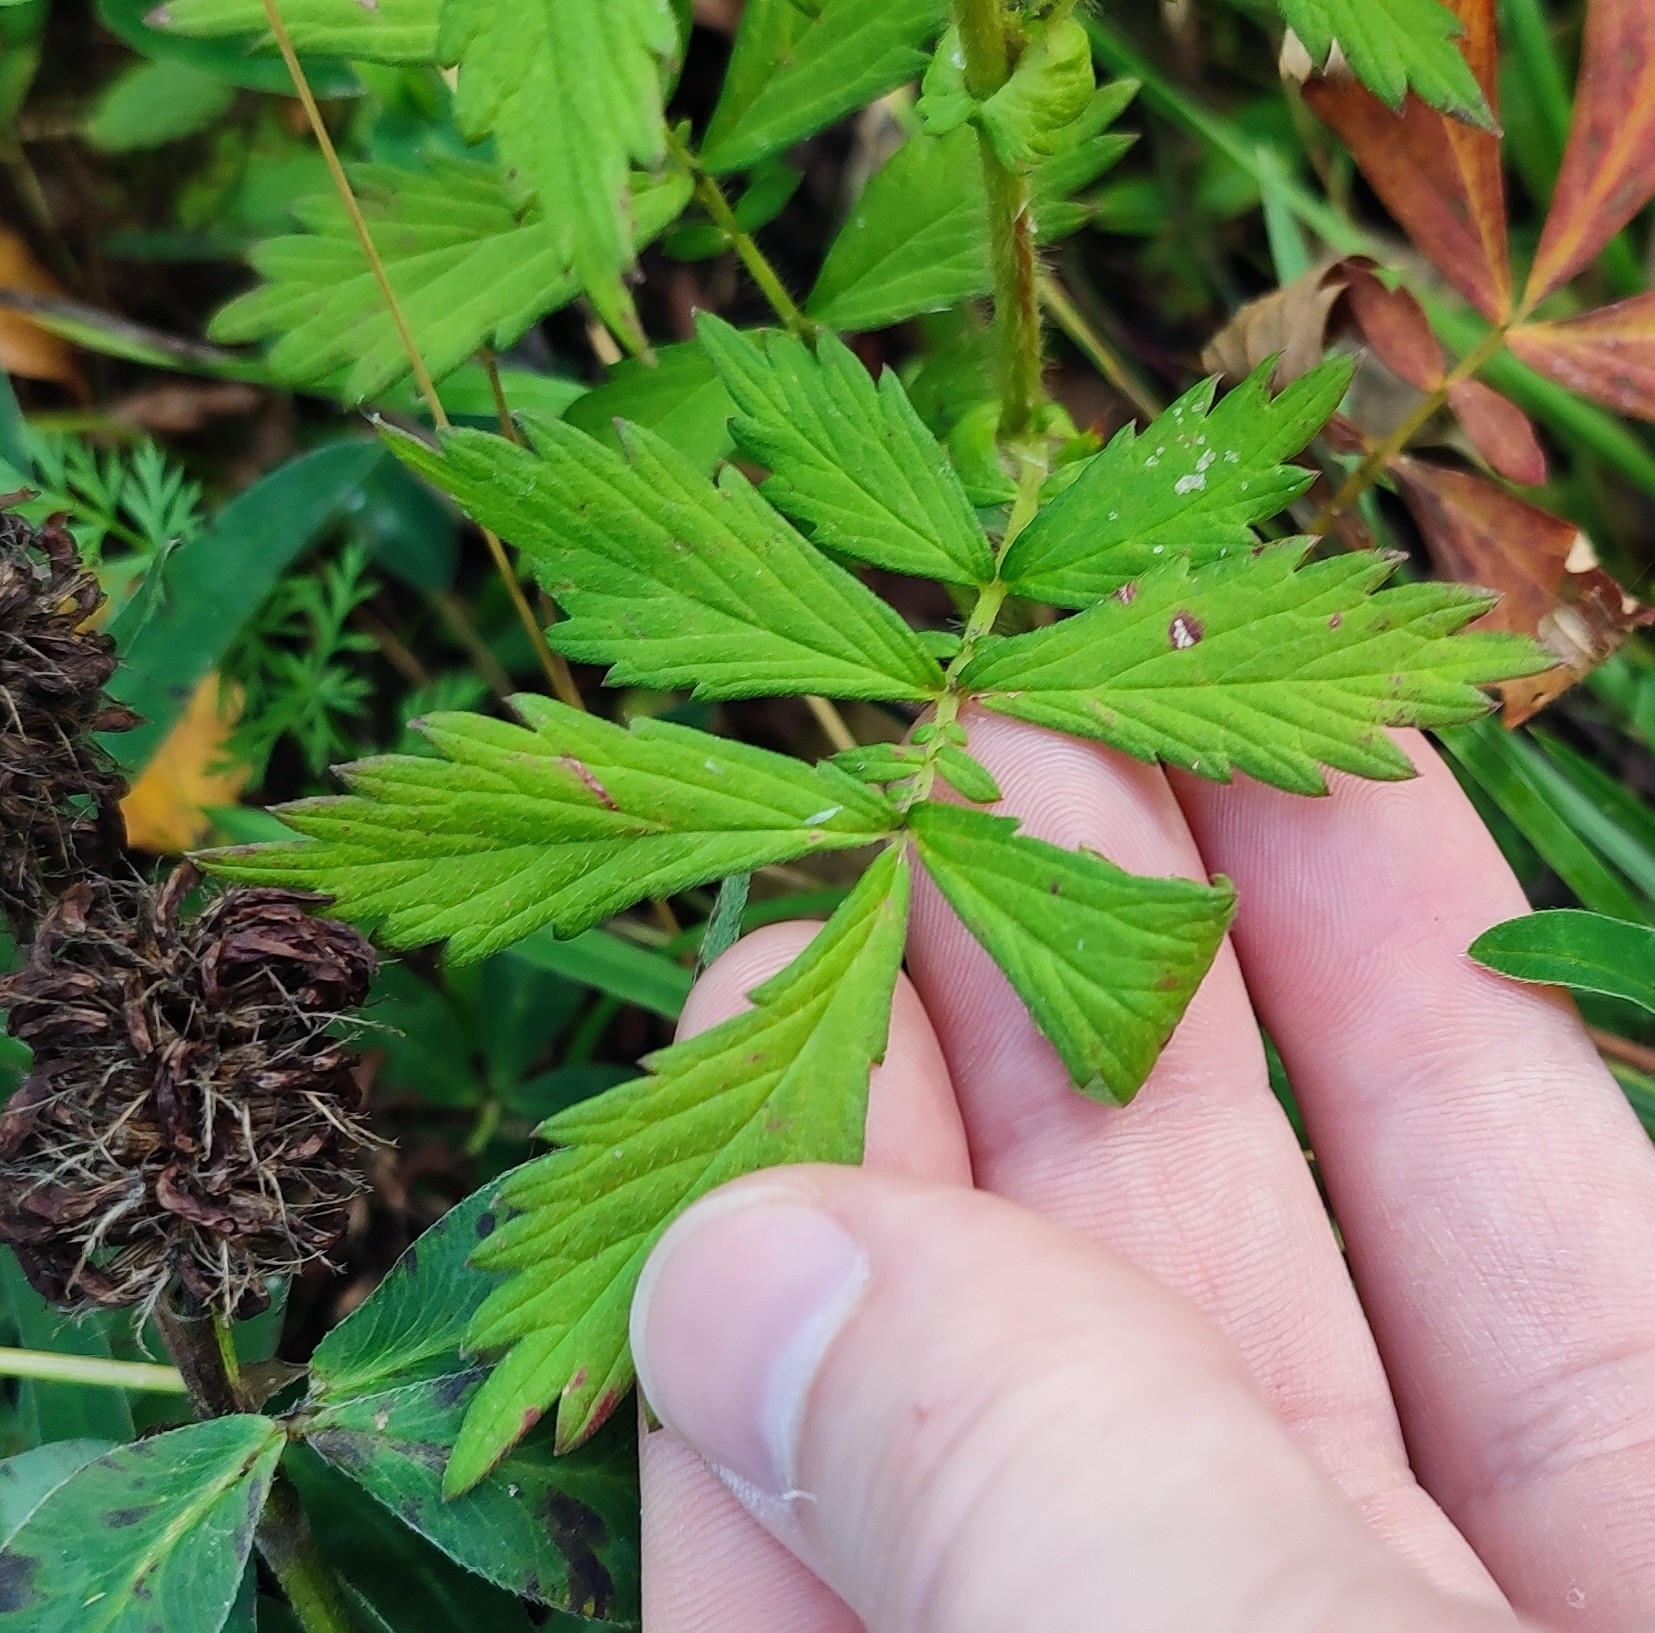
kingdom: Plantae
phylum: Tracheophyta
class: Magnoliopsida
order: Rosales
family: Rosaceae
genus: Agrimonia
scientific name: Agrimonia pilosa
